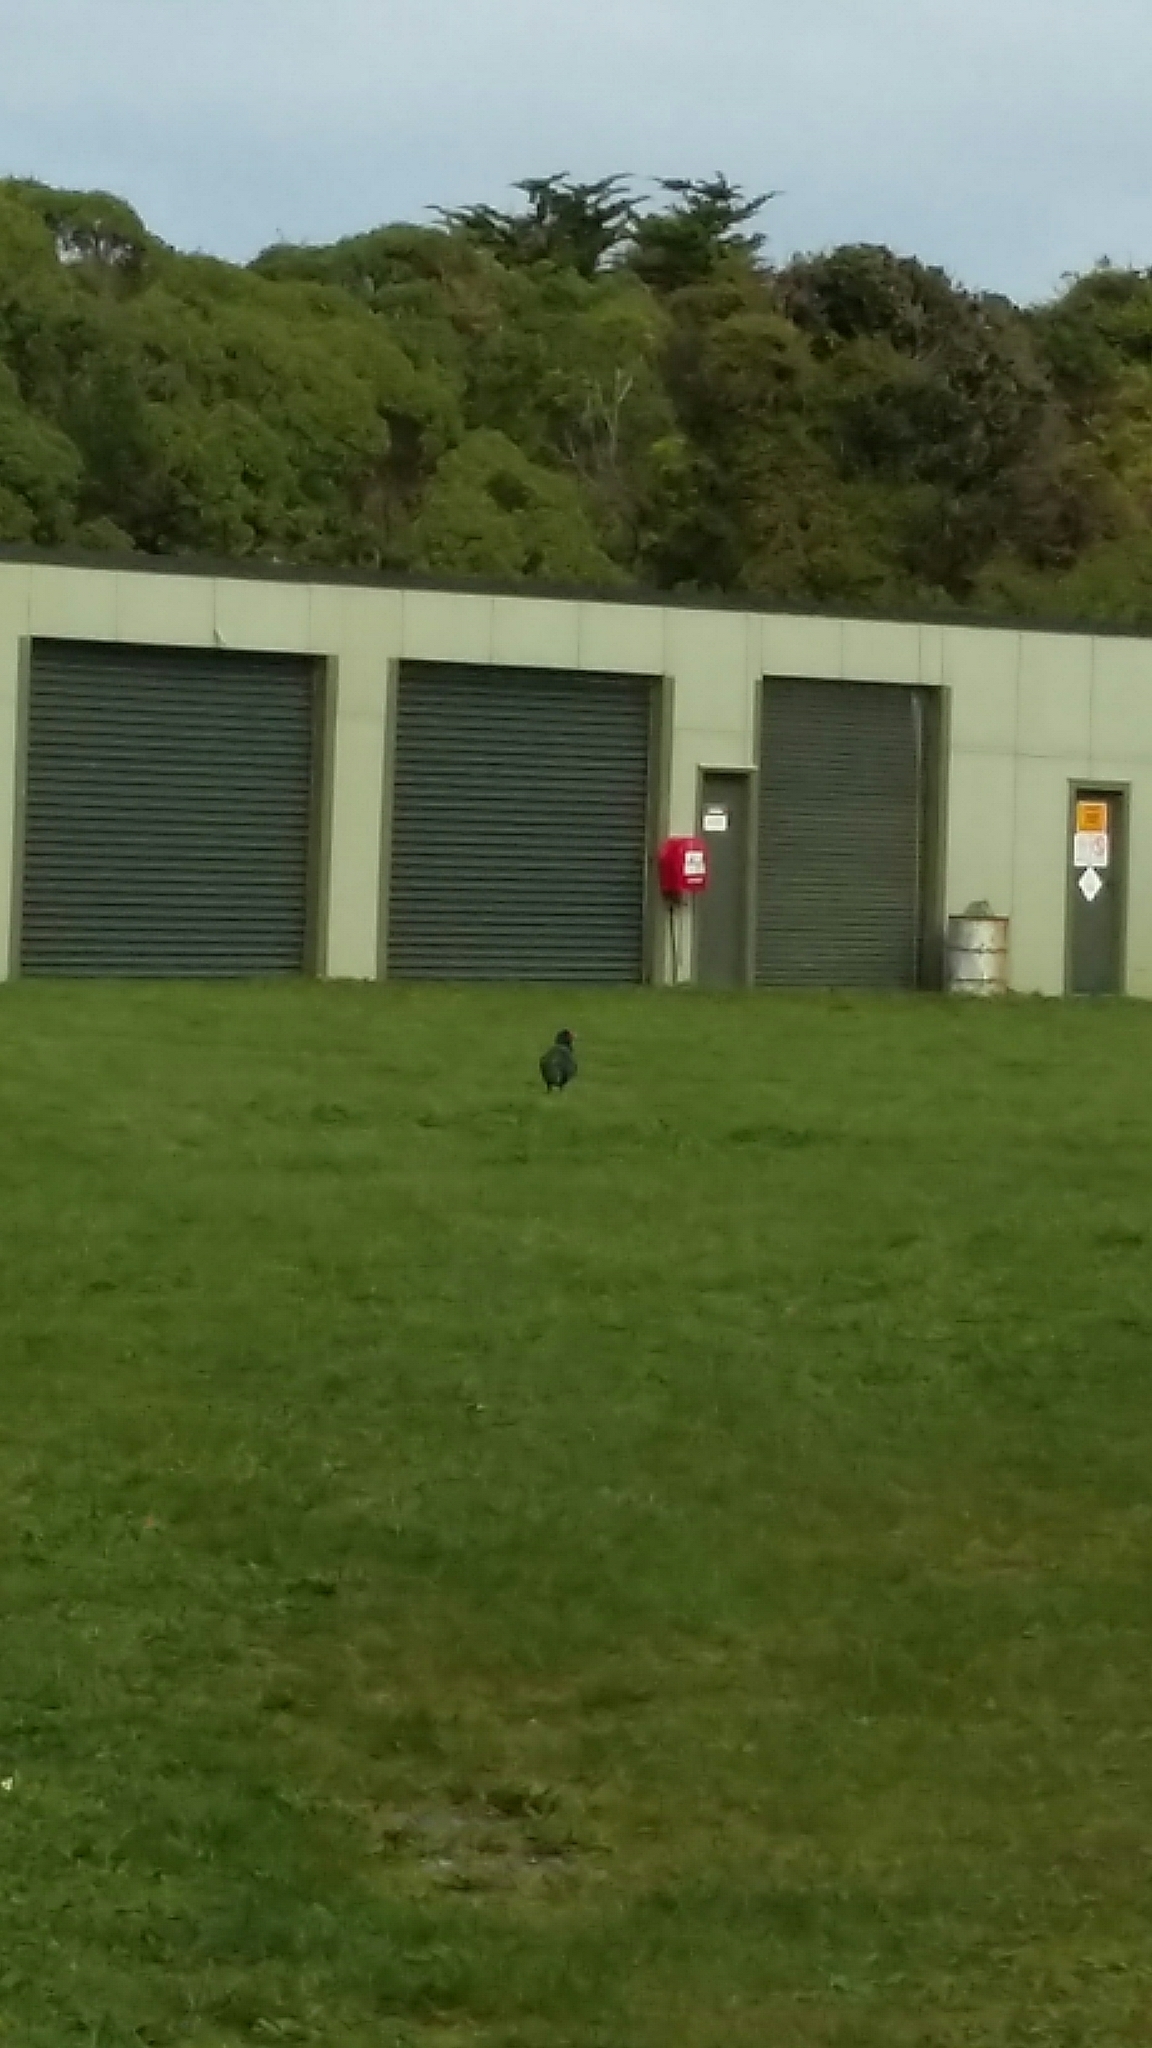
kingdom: Animalia
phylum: Chordata
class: Aves
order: Gruiformes
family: Rallidae
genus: Porphyrio
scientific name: Porphyrio hochstetteri
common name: South island takahe
